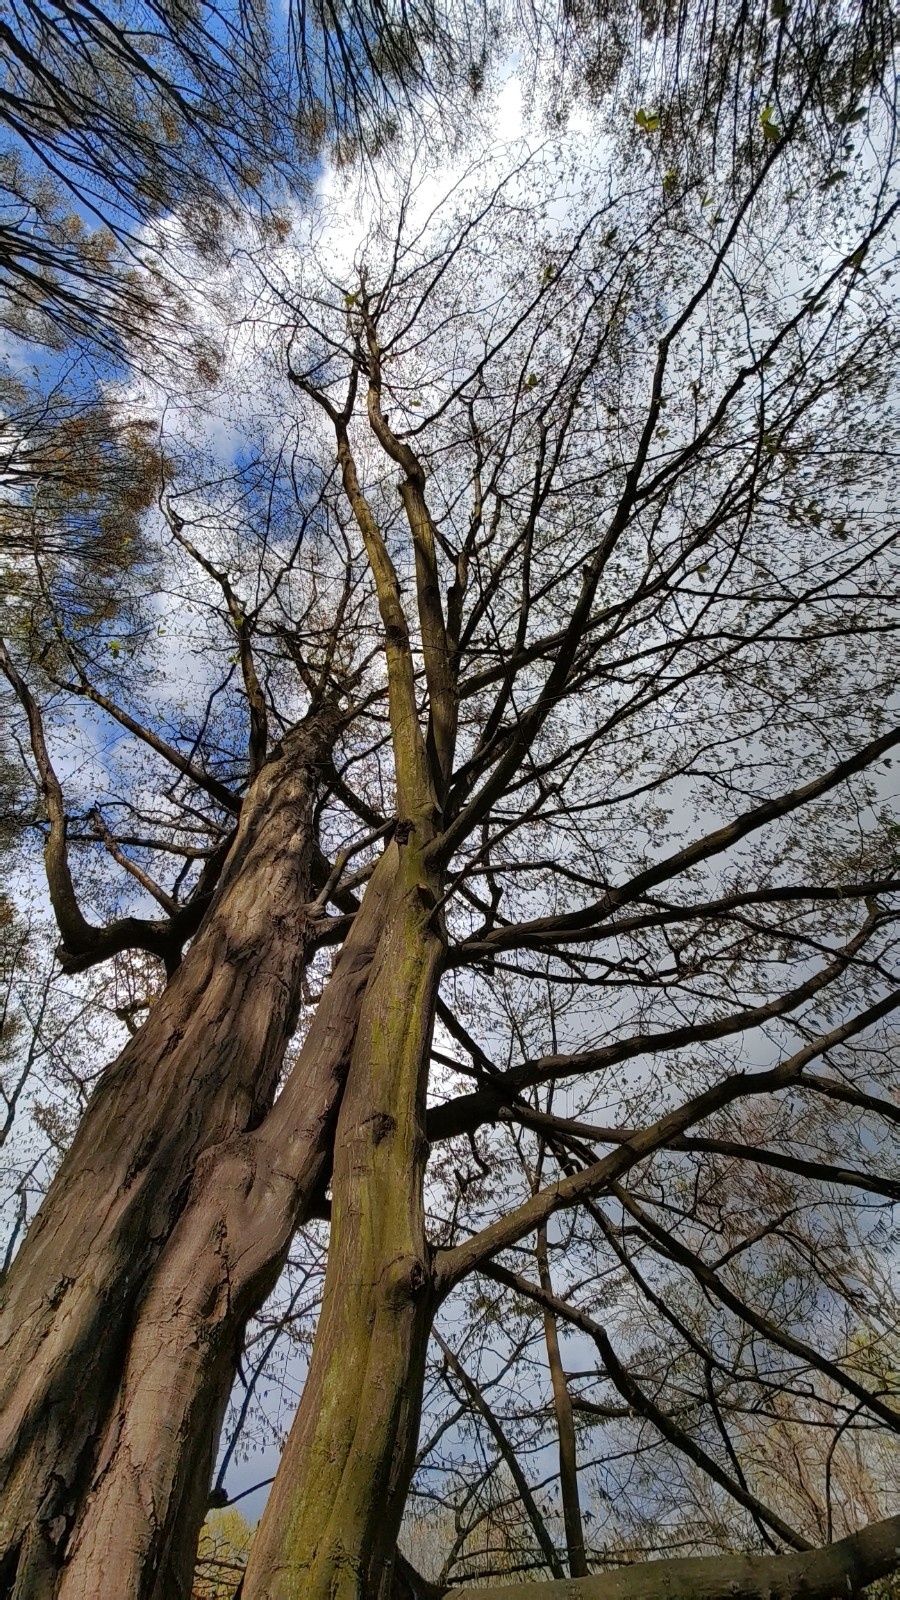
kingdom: Plantae
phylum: Tracheophyta
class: Magnoliopsida
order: Fagales
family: Betulaceae
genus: Carpinus
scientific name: Carpinus betulus
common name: Hornbeam
